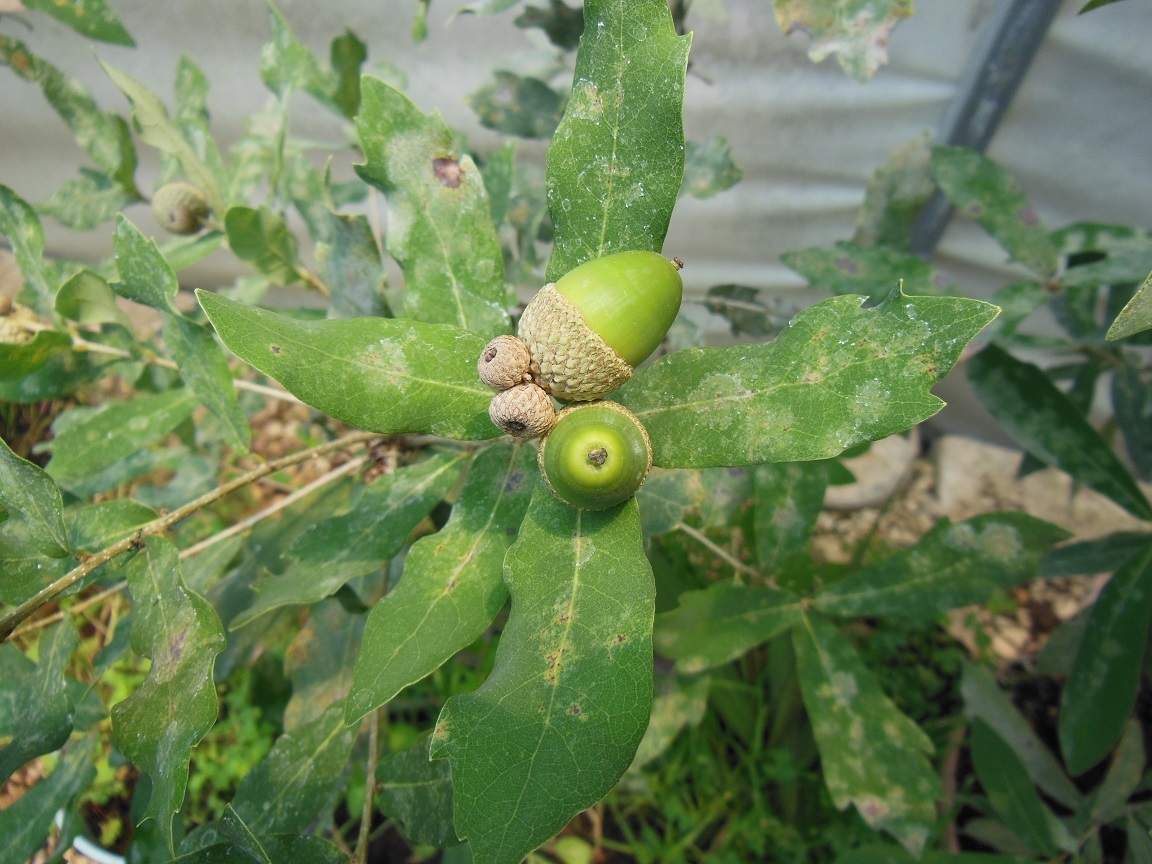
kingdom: Plantae
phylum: Tracheophyta
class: Magnoliopsida
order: Fagales
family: Fagaceae
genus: Quercus
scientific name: Quercus sebifera
